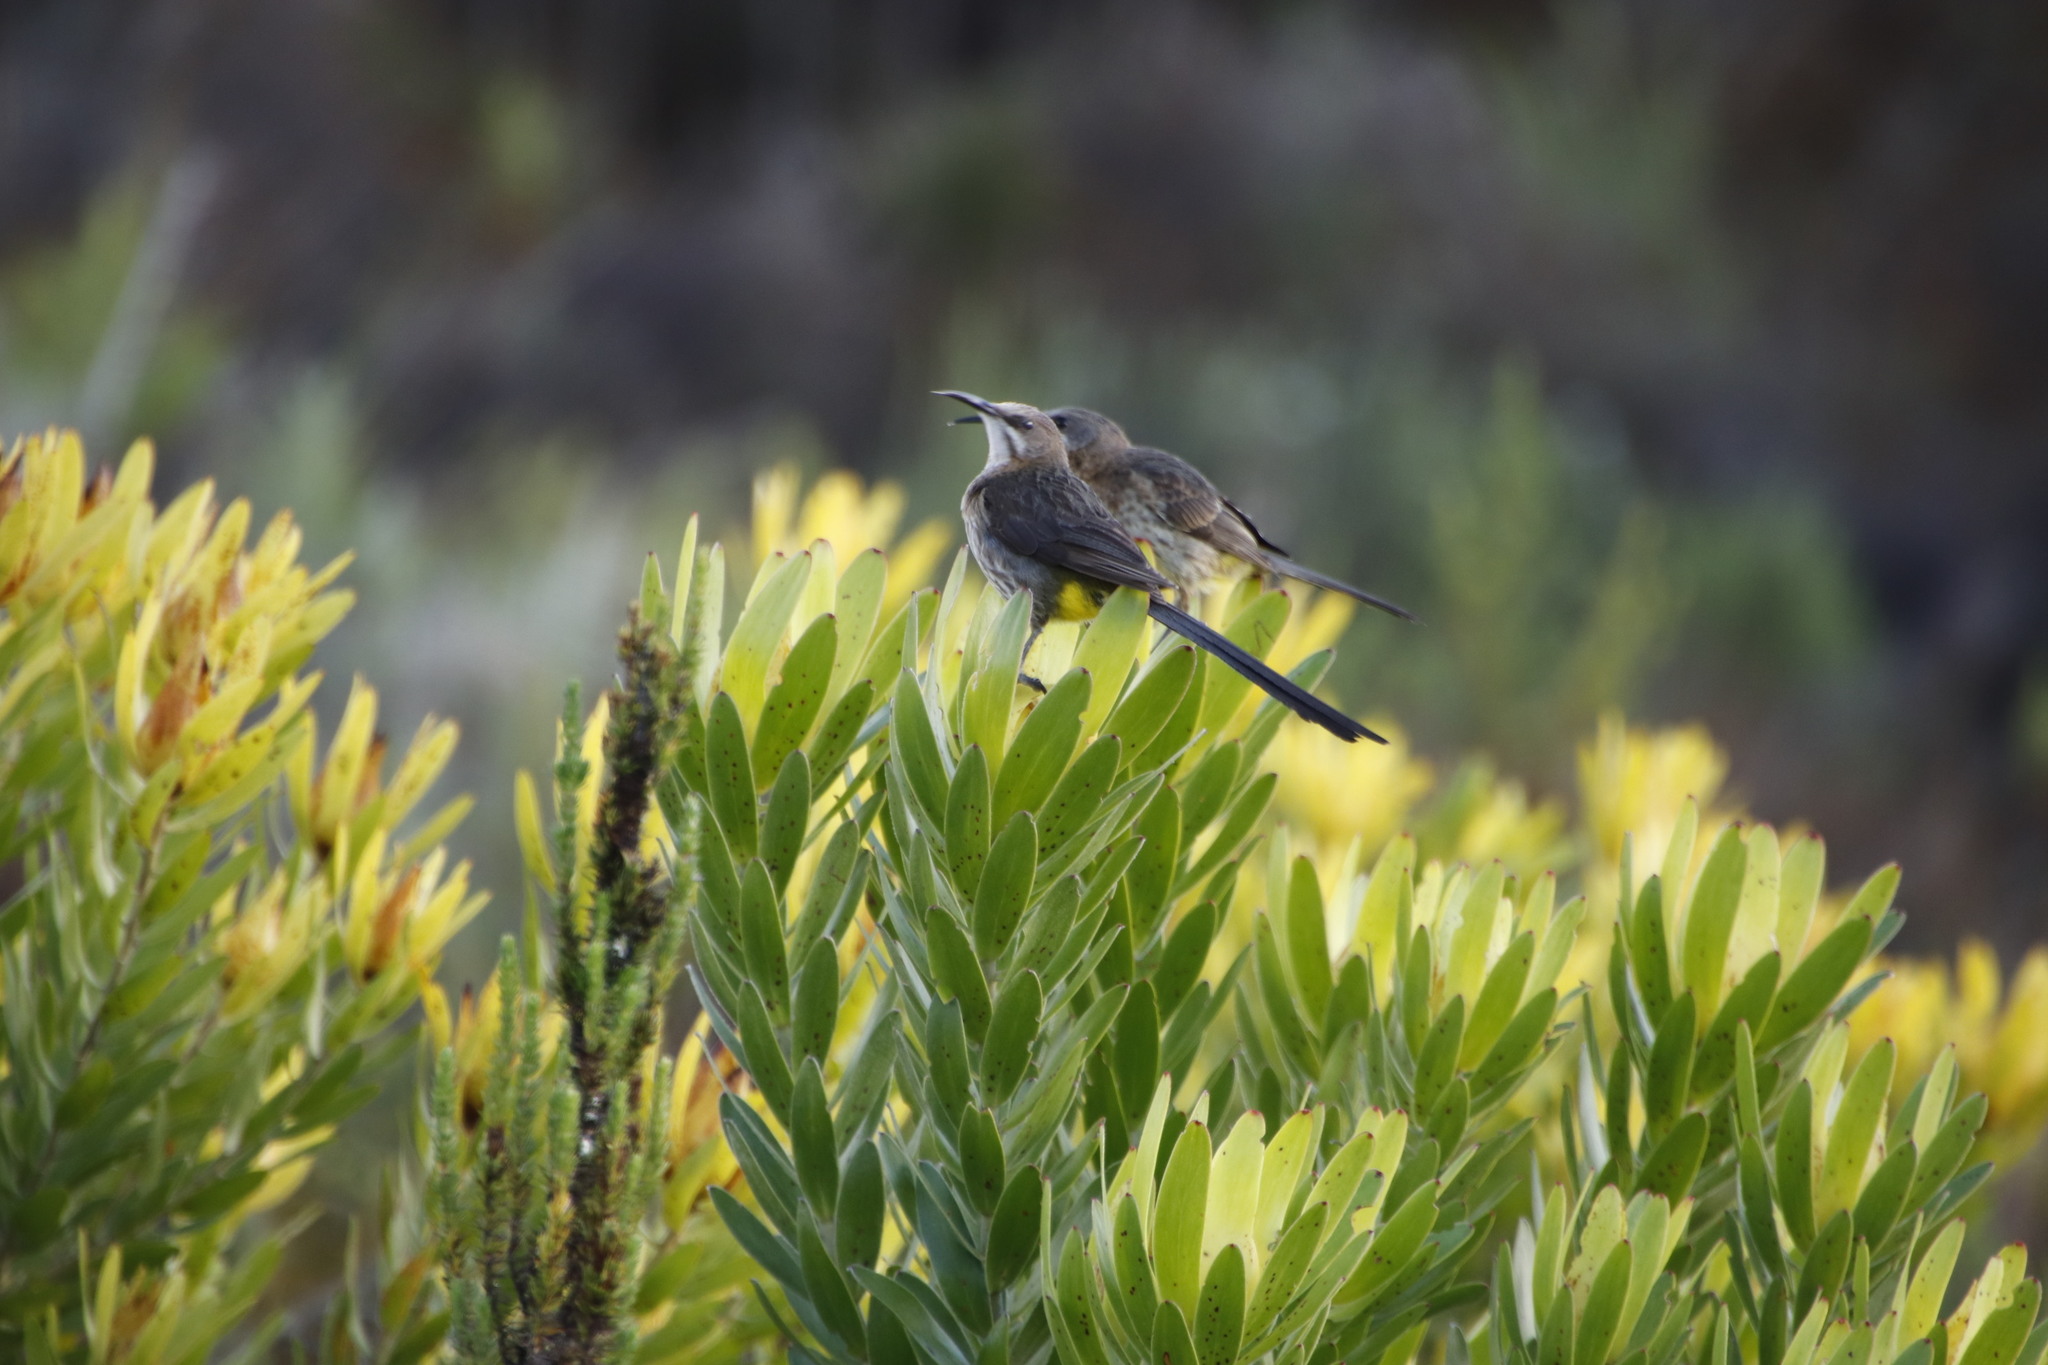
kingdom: Animalia
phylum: Chordata
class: Aves
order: Passeriformes
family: Promeropidae
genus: Promerops
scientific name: Promerops cafer
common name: Cape sugarbird
